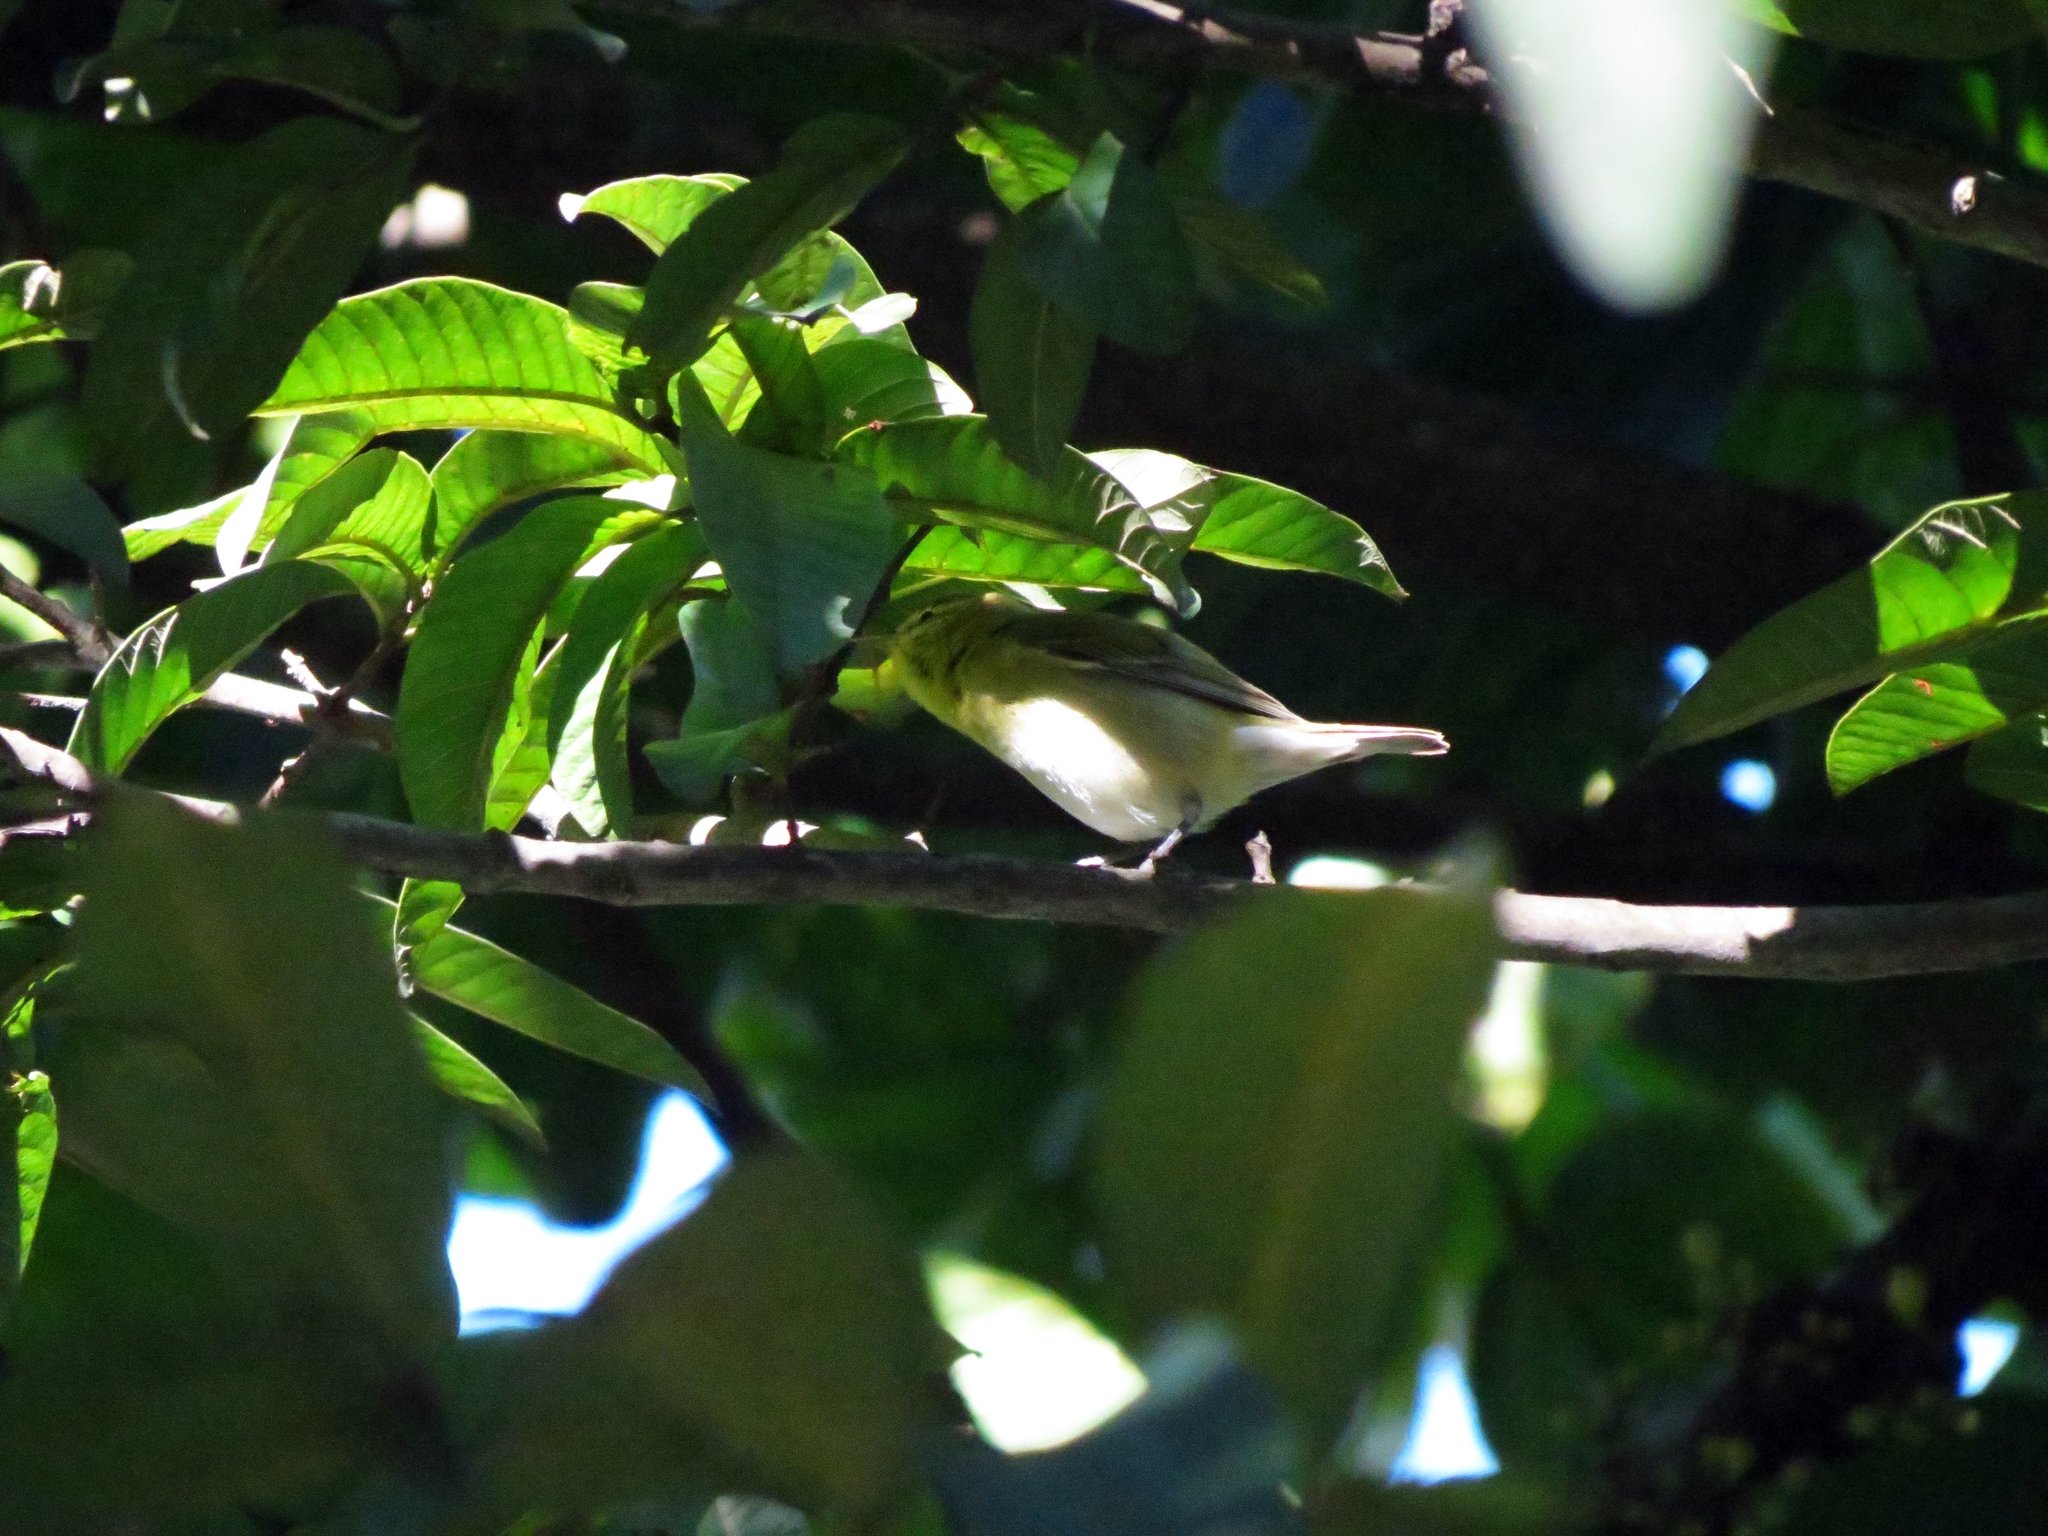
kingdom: Animalia
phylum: Chordata
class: Aves
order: Passeriformes
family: Parulidae
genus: Setophaga
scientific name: Setophaga castanea
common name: Bay-breasted warbler
